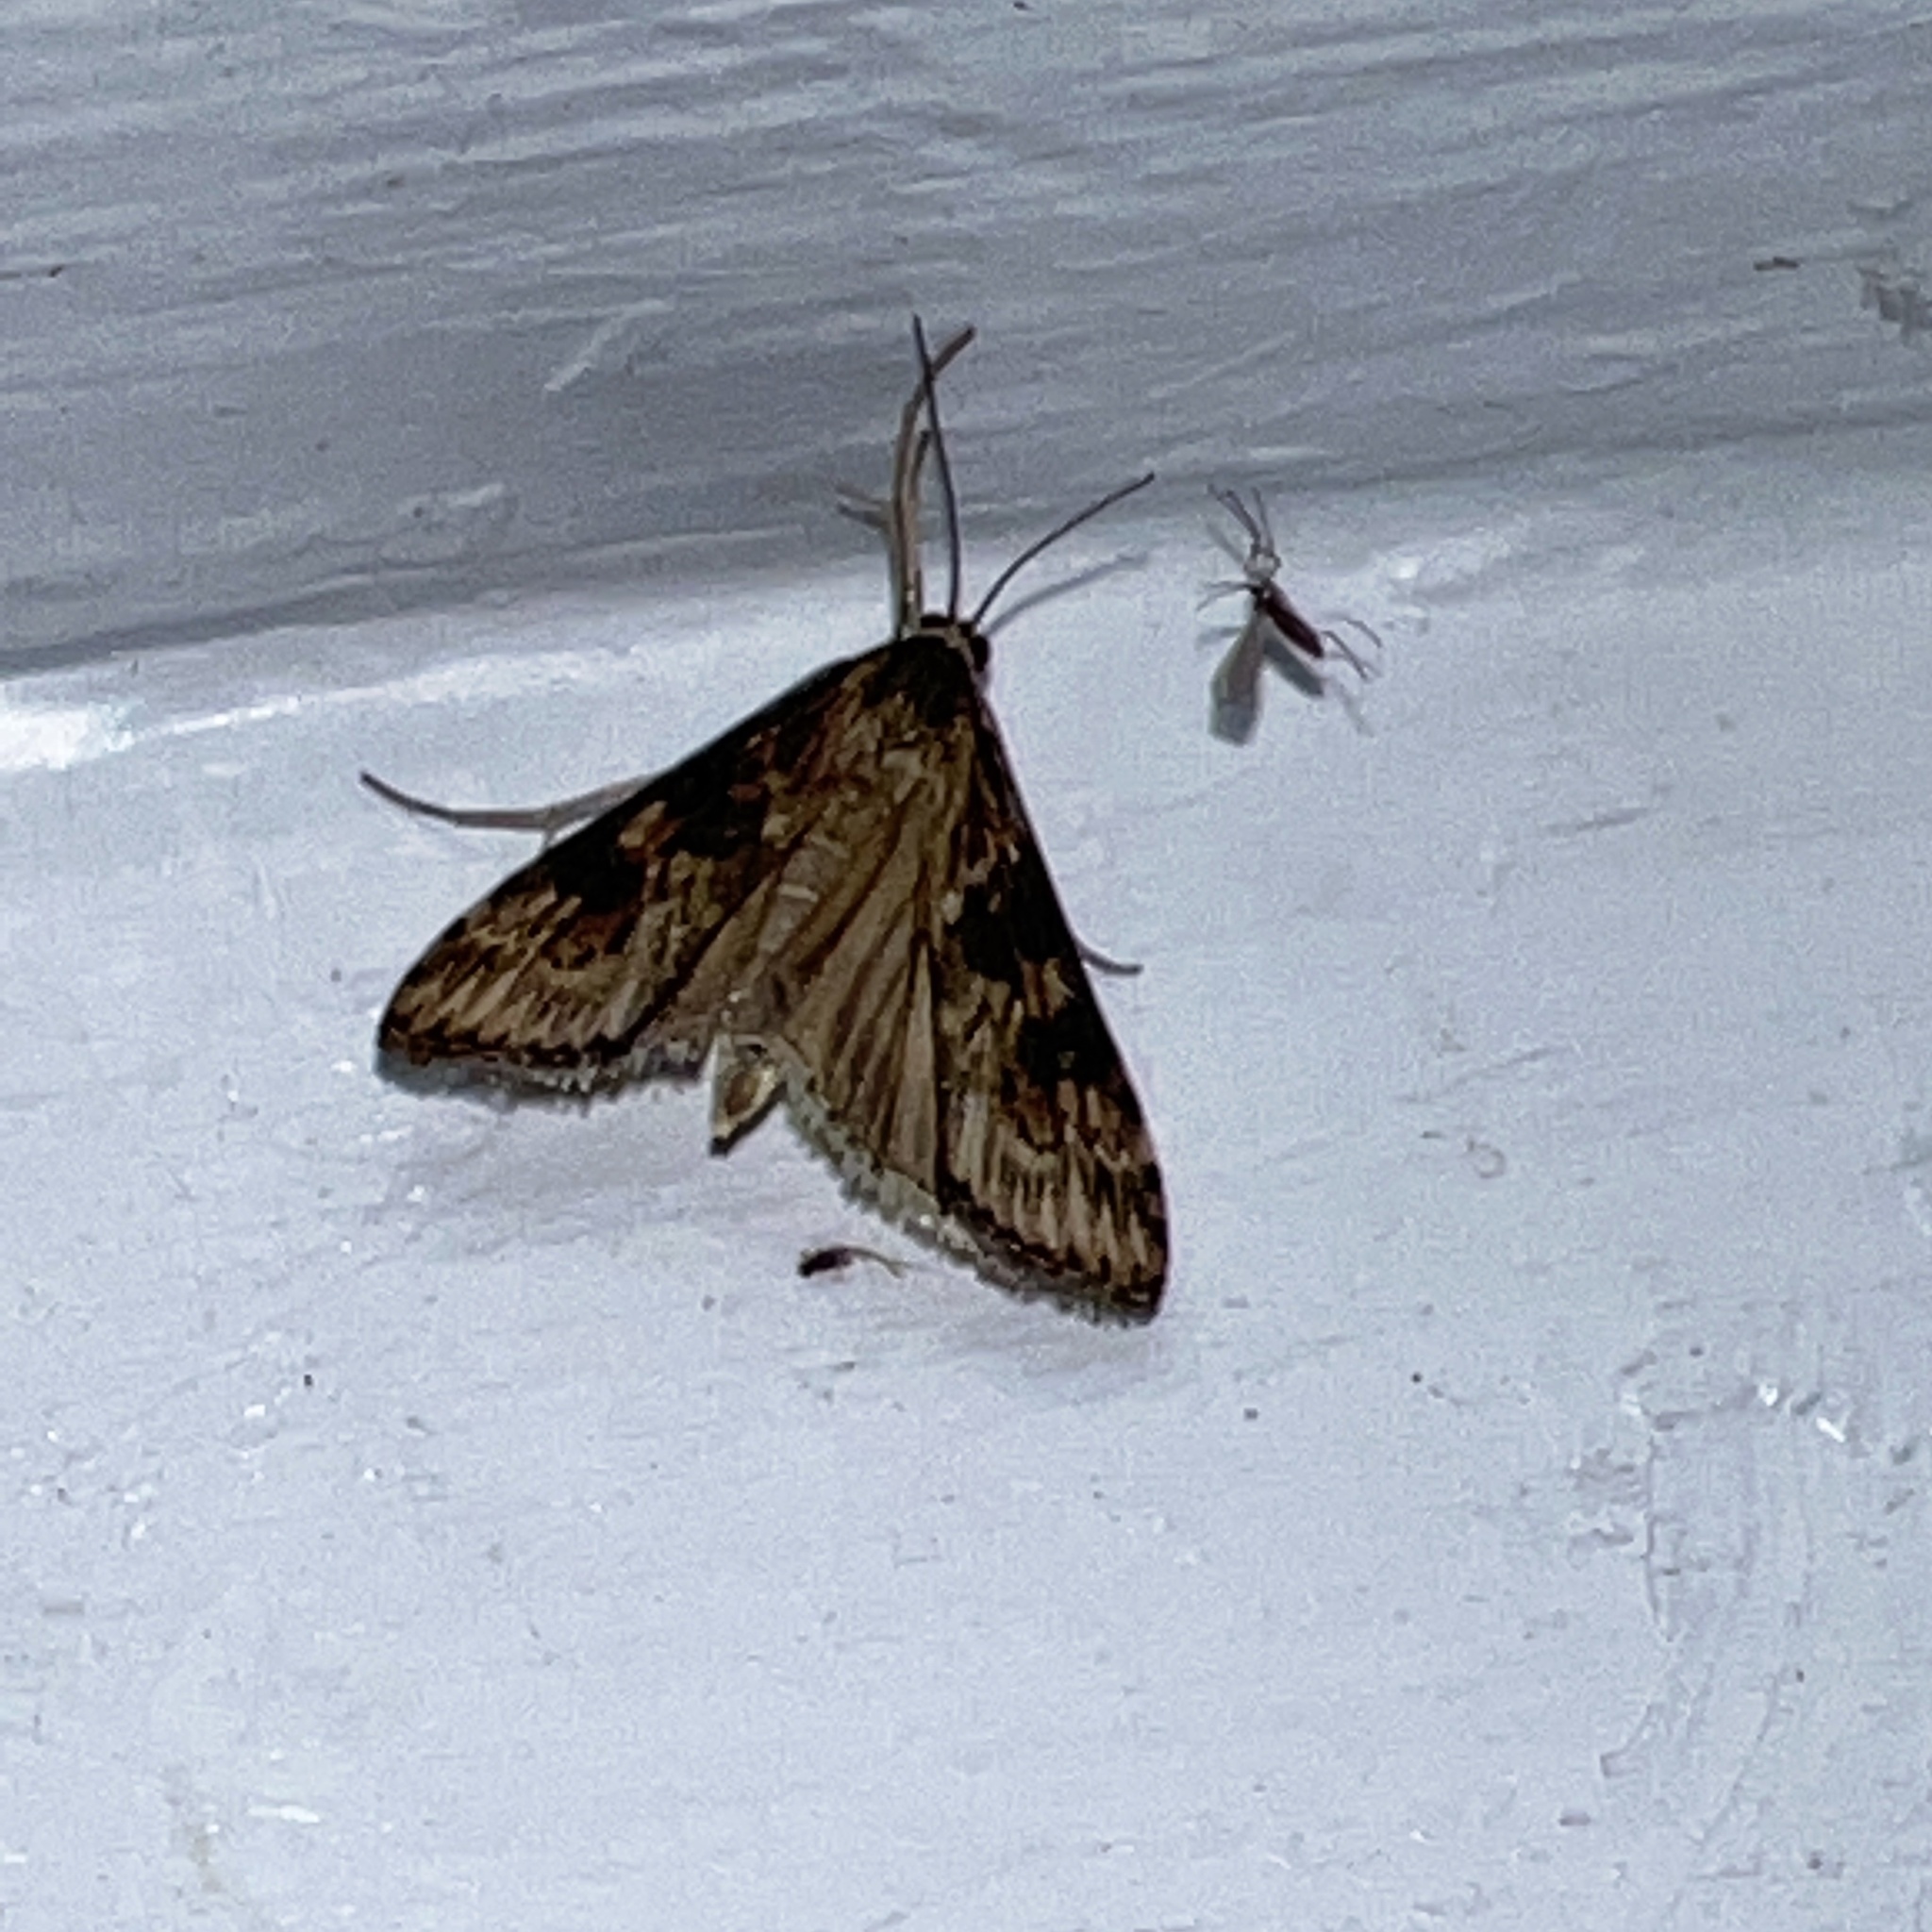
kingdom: Animalia
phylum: Arthropoda
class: Insecta
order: Lepidoptera
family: Crambidae
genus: Nomophila
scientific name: Nomophila nearctica
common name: American rush veneer
